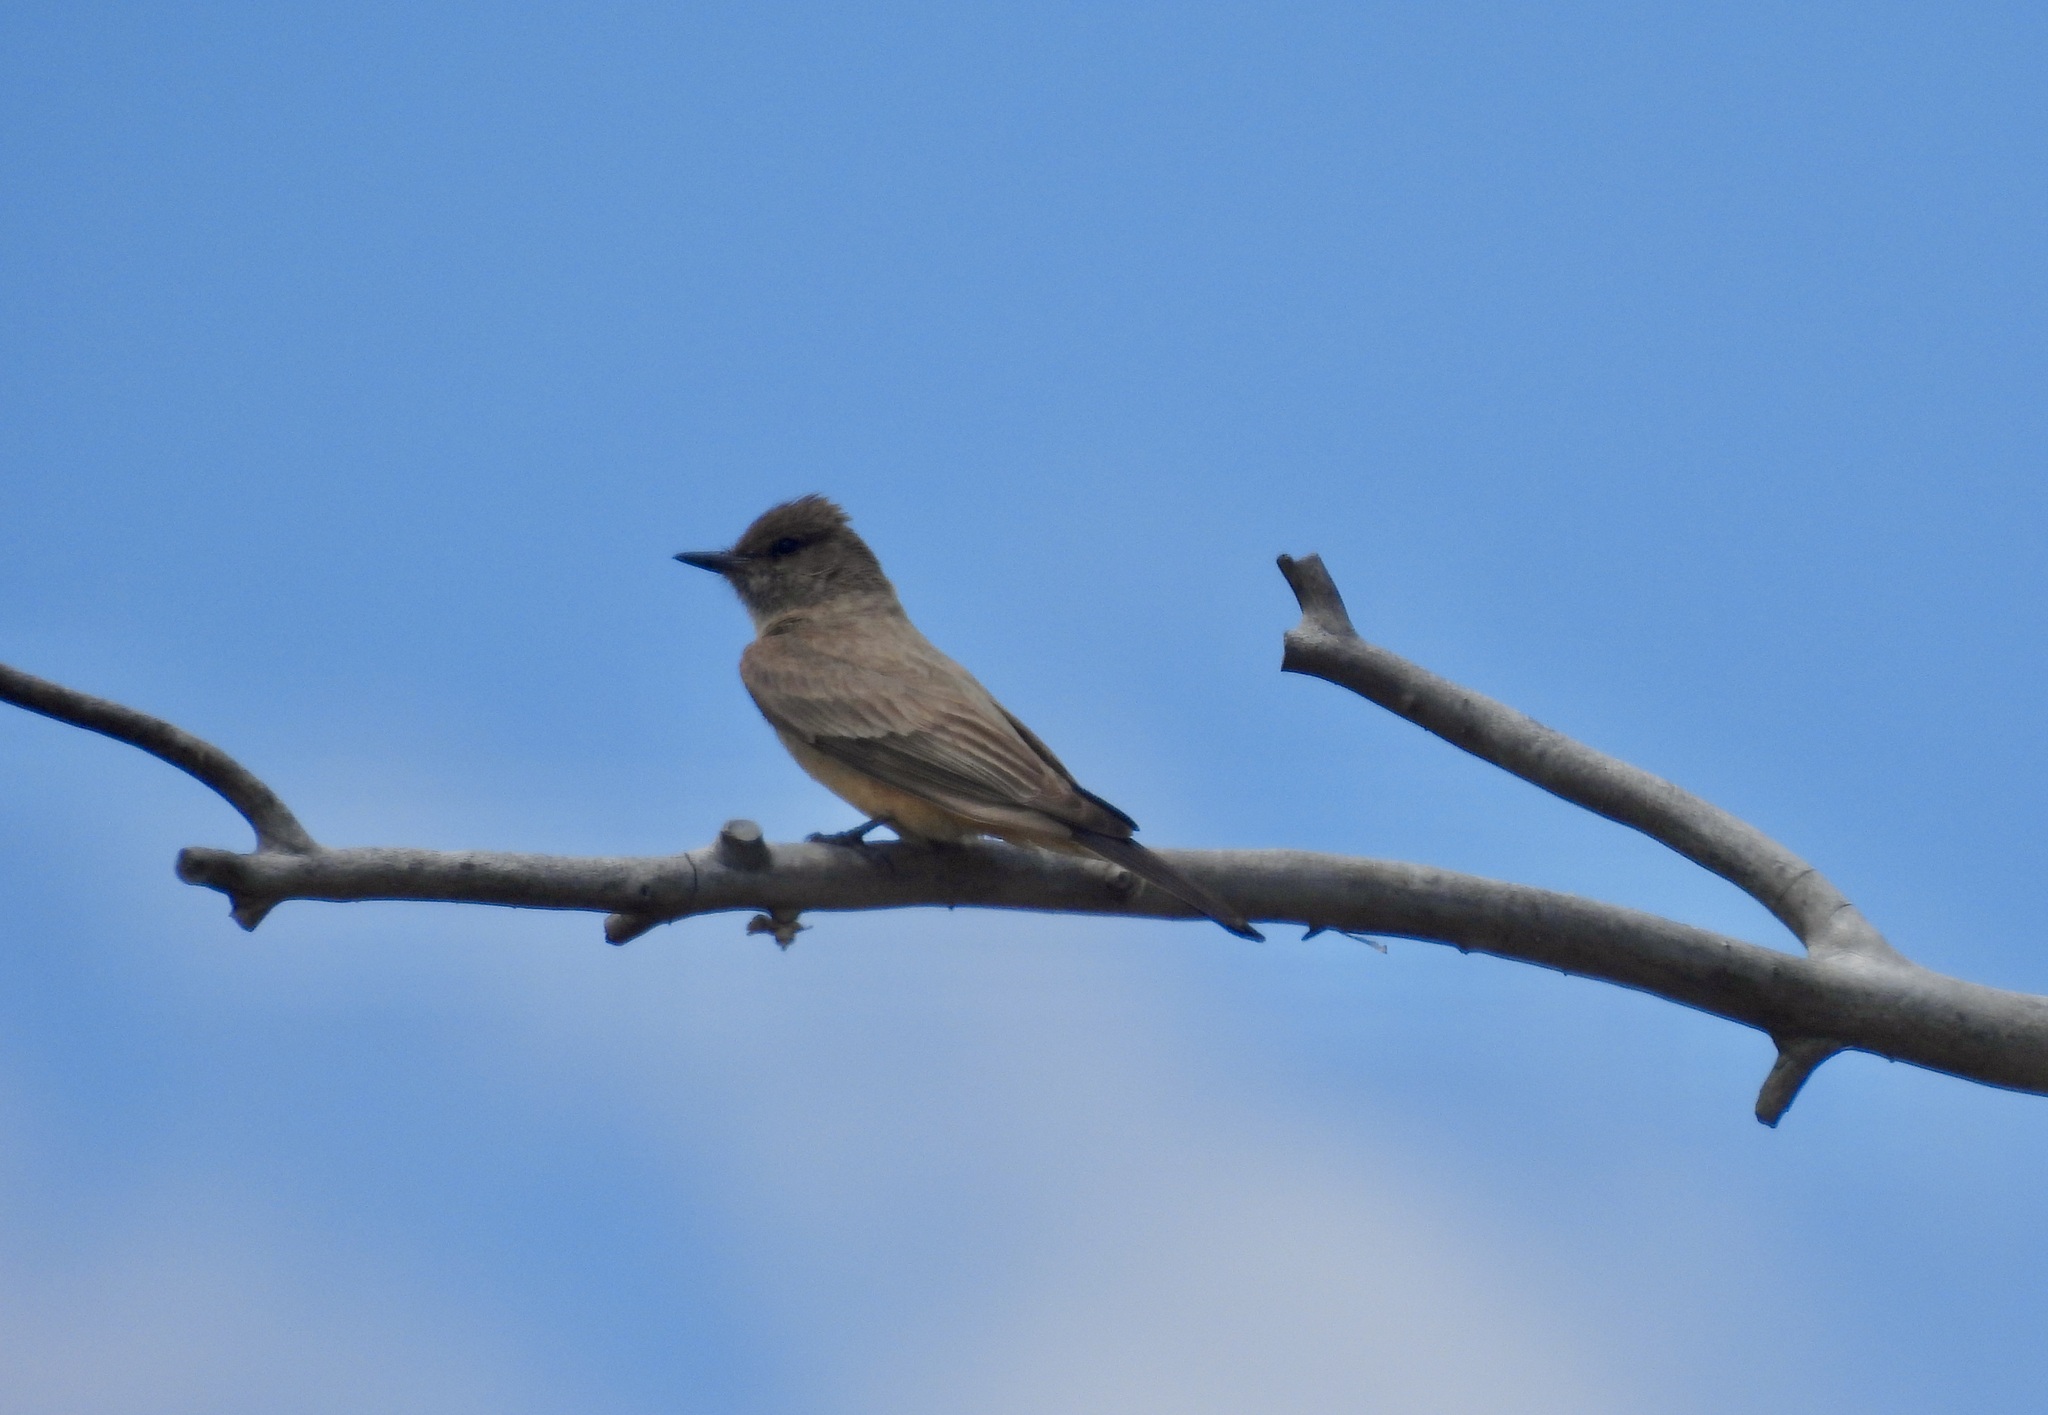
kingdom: Animalia
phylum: Chordata
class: Aves
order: Passeriformes
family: Tyrannidae
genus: Sayornis
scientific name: Sayornis saya
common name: Say's phoebe
